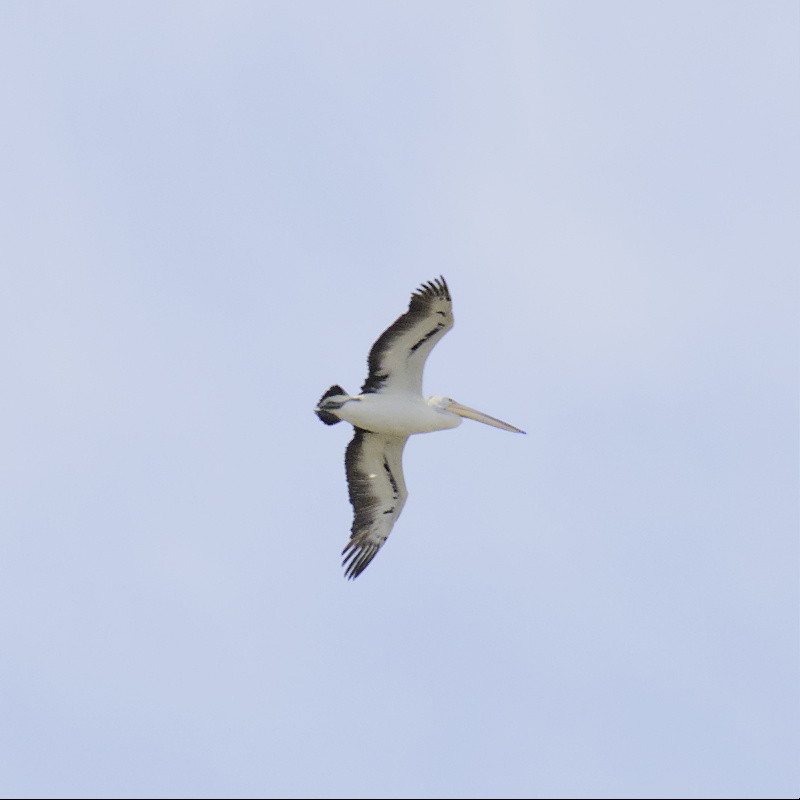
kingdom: Animalia
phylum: Chordata
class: Aves
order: Pelecaniformes
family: Pelecanidae
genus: Pelecanus
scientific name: Pelecanus conspicillatus
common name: Australian pelican
